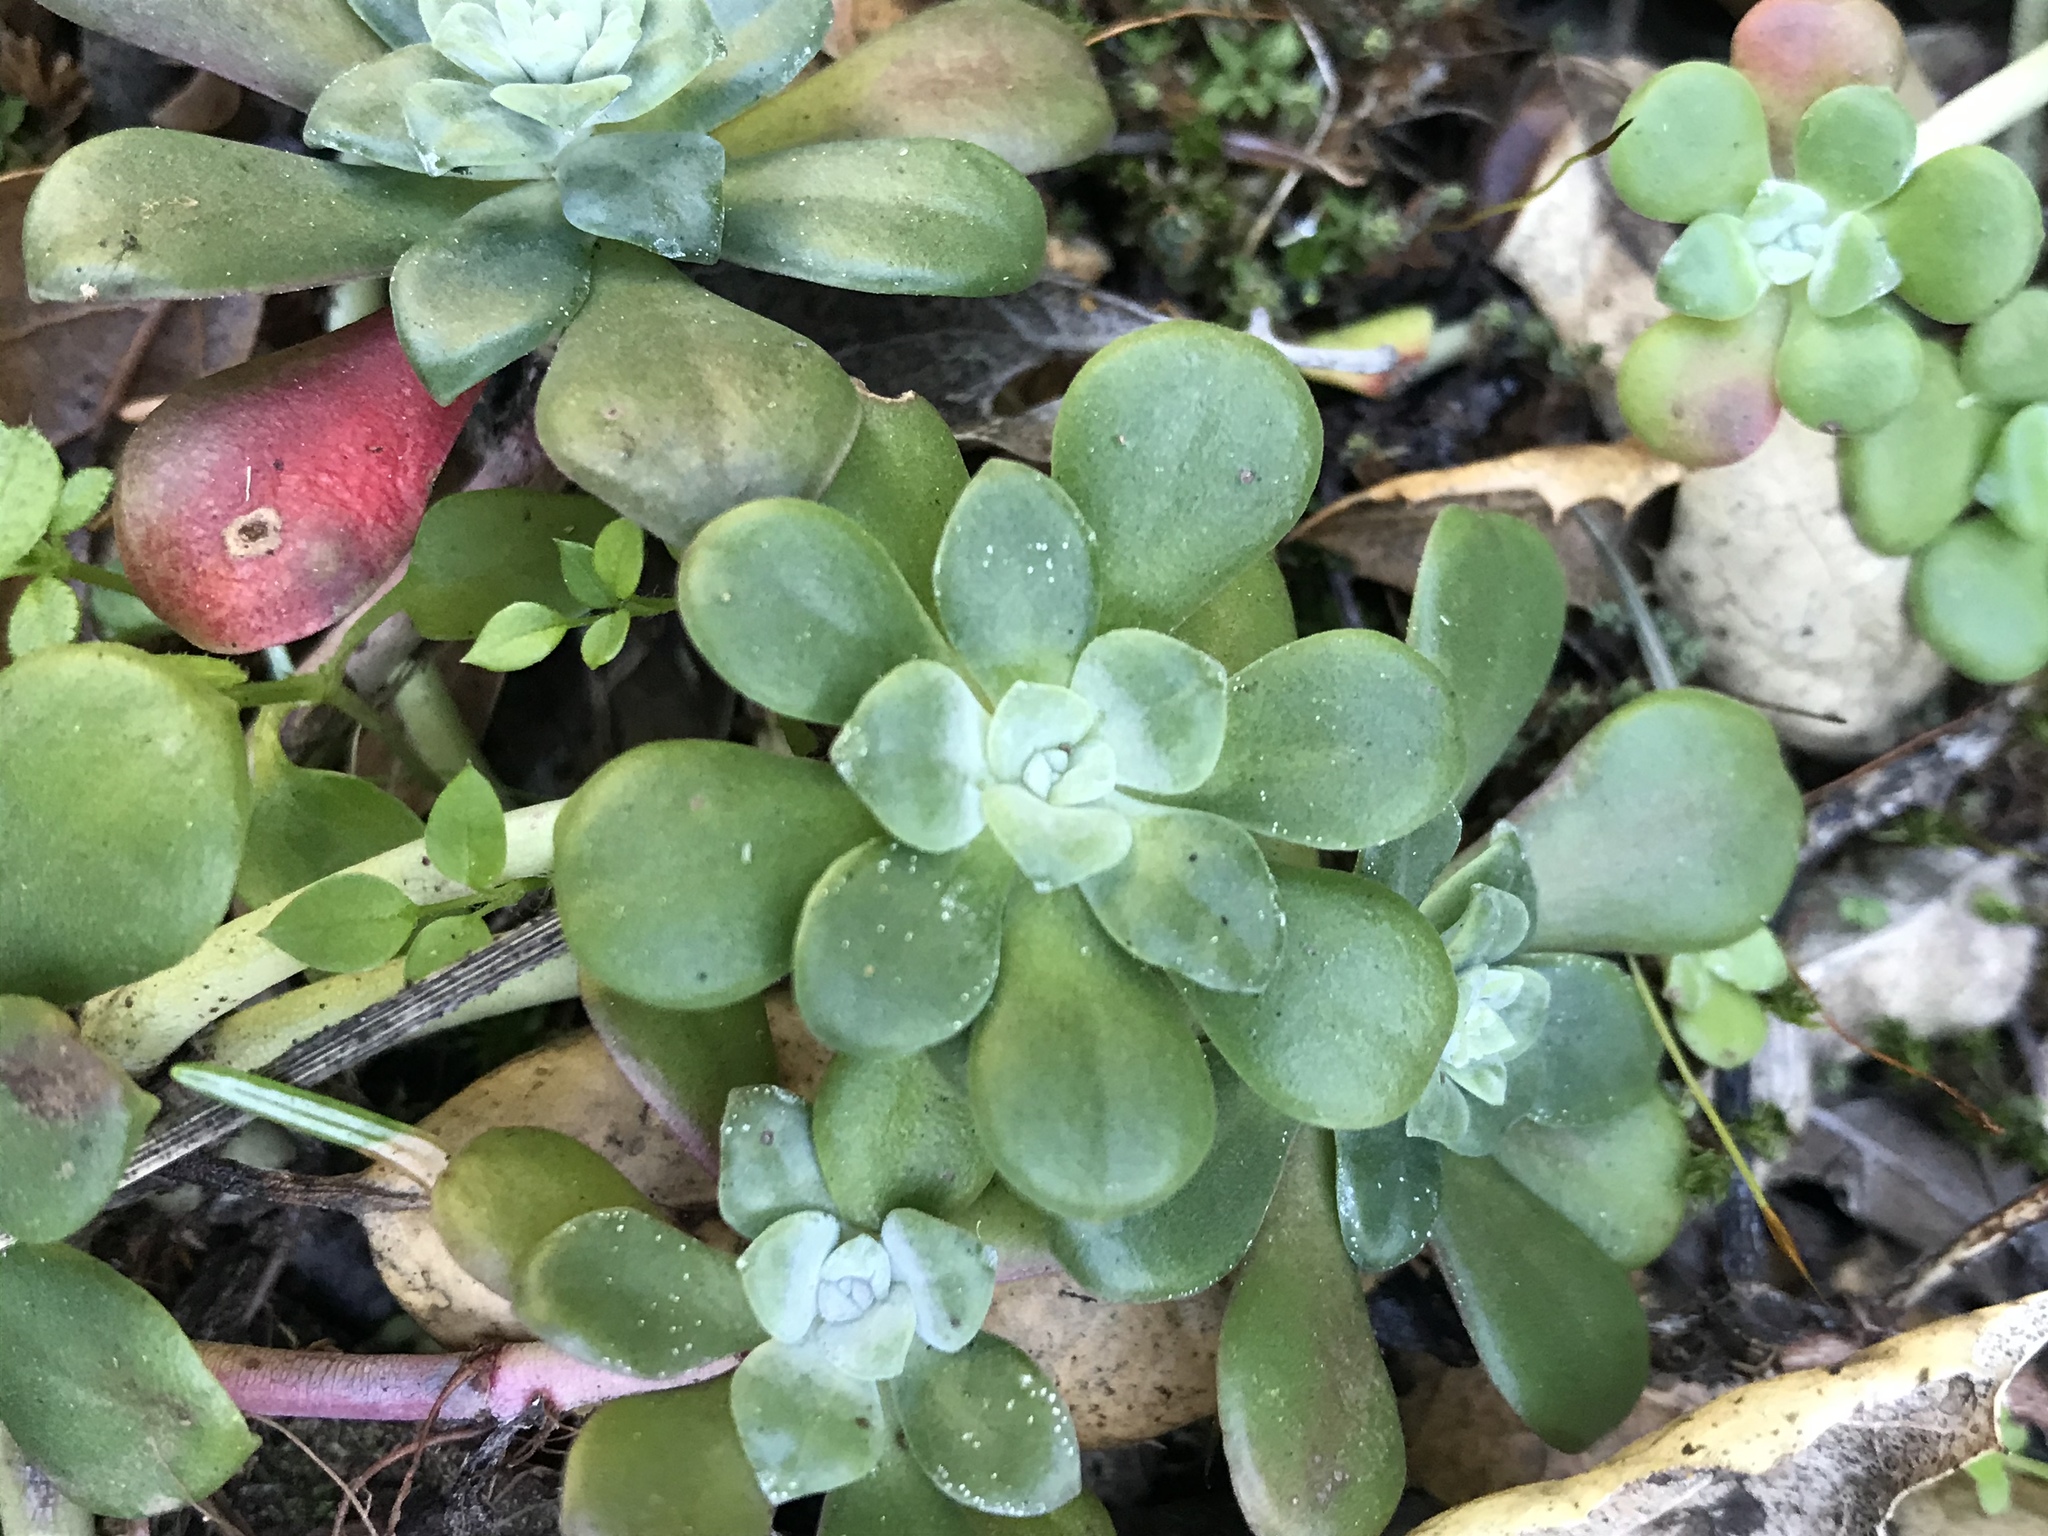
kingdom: Plantae
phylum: Tracheophyta
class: Magnoliopsida
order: Saxifragales
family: Crassulaceae
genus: Sedum
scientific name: Sedum spathulifolium
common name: Colorado stonecrop
